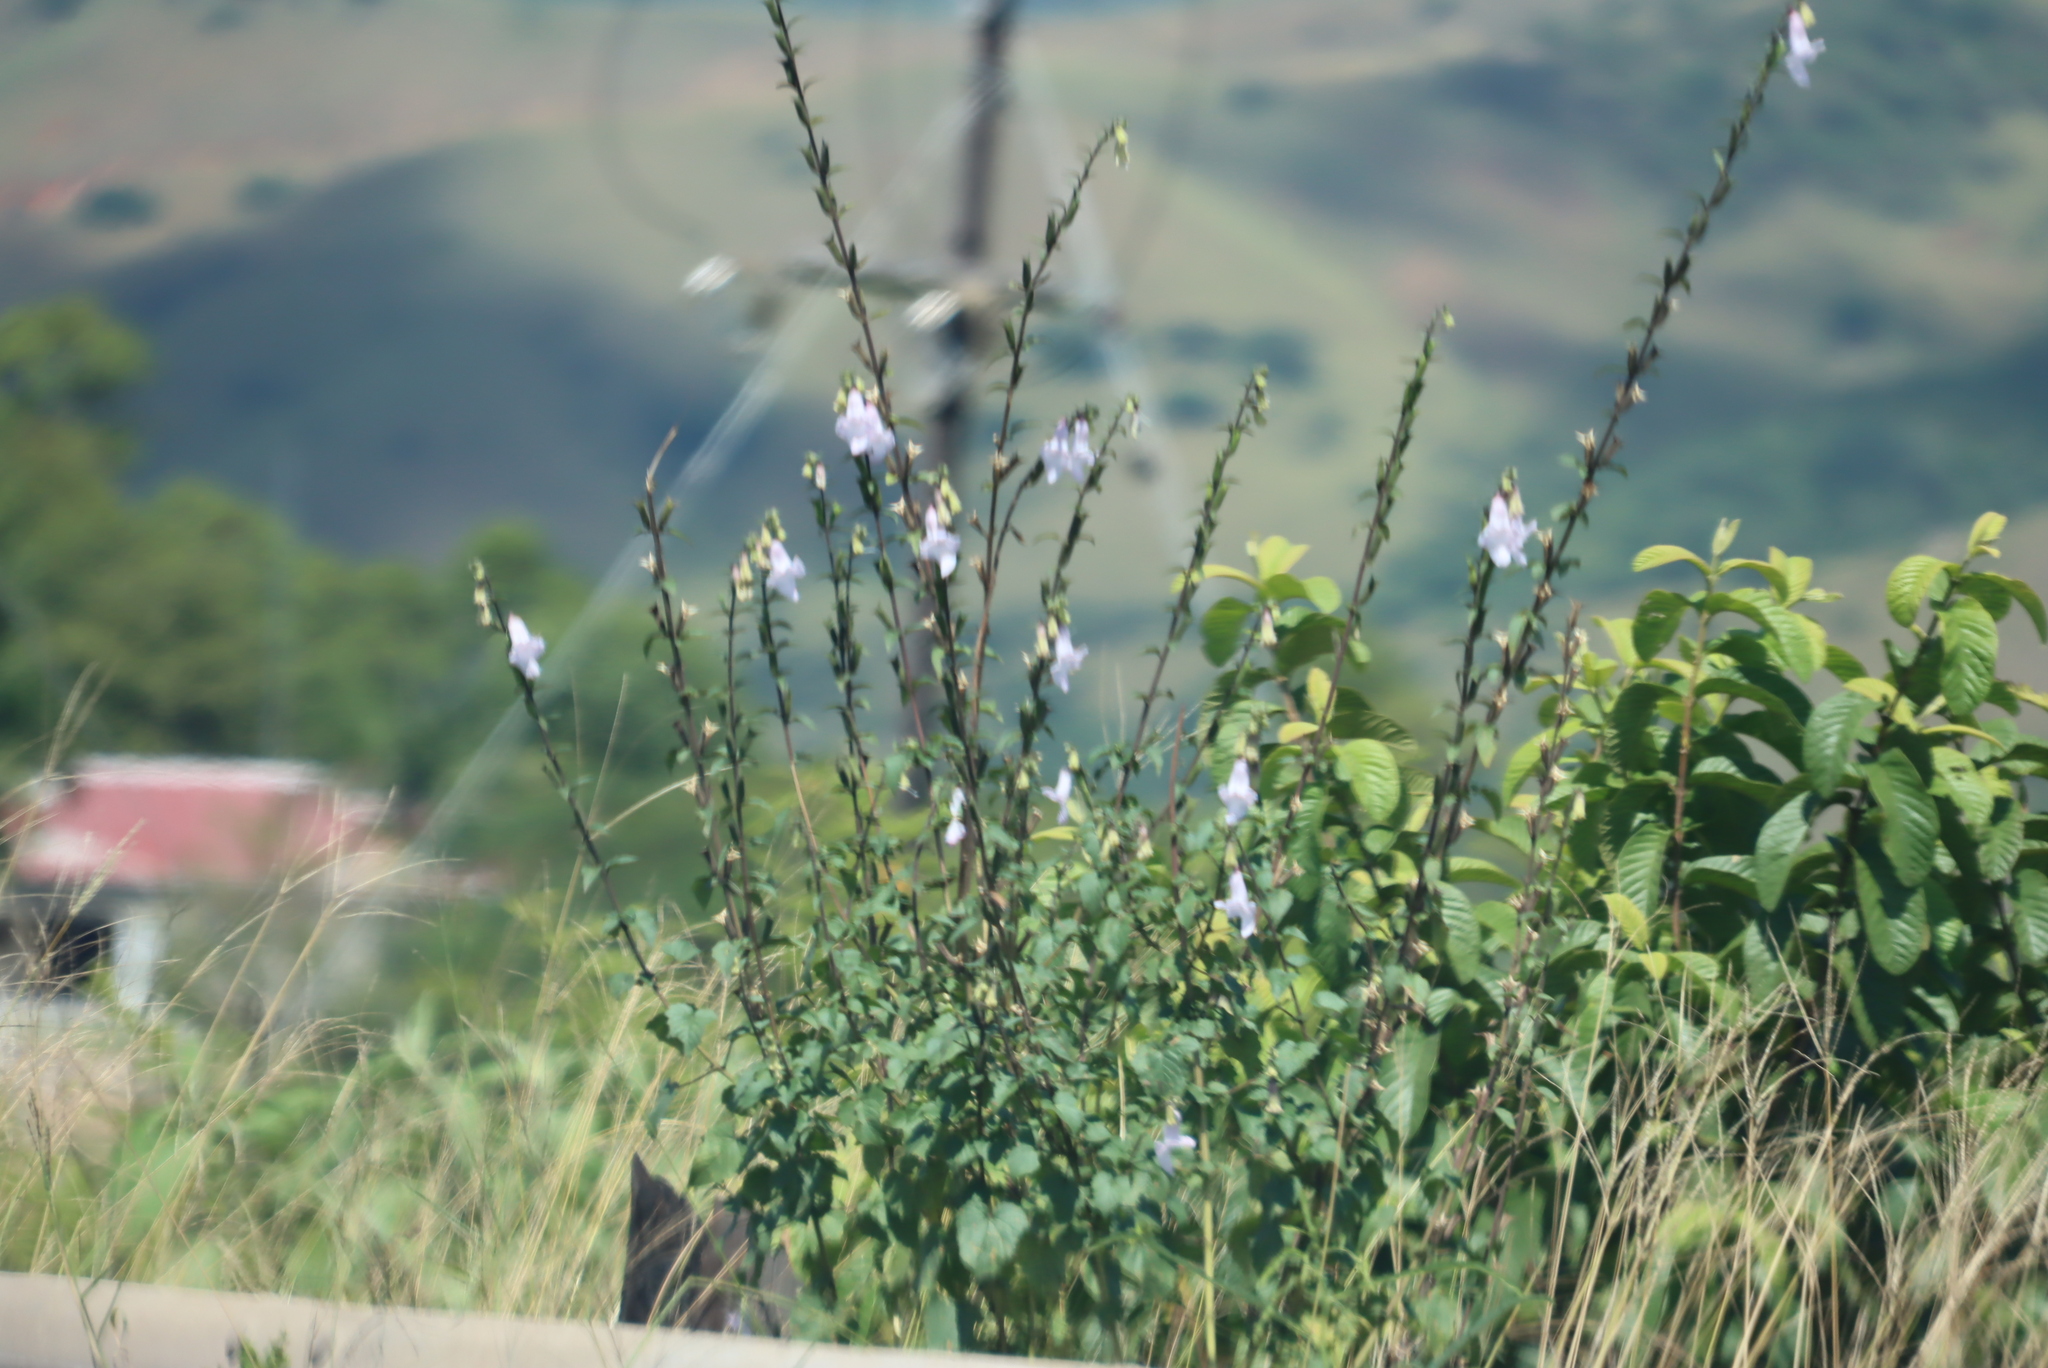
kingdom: Plantae
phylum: Tracheophyta
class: Magnoliopsida
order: Lamiales
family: Pedaliaceae
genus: Sesamum
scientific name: Sesamum trilobum
